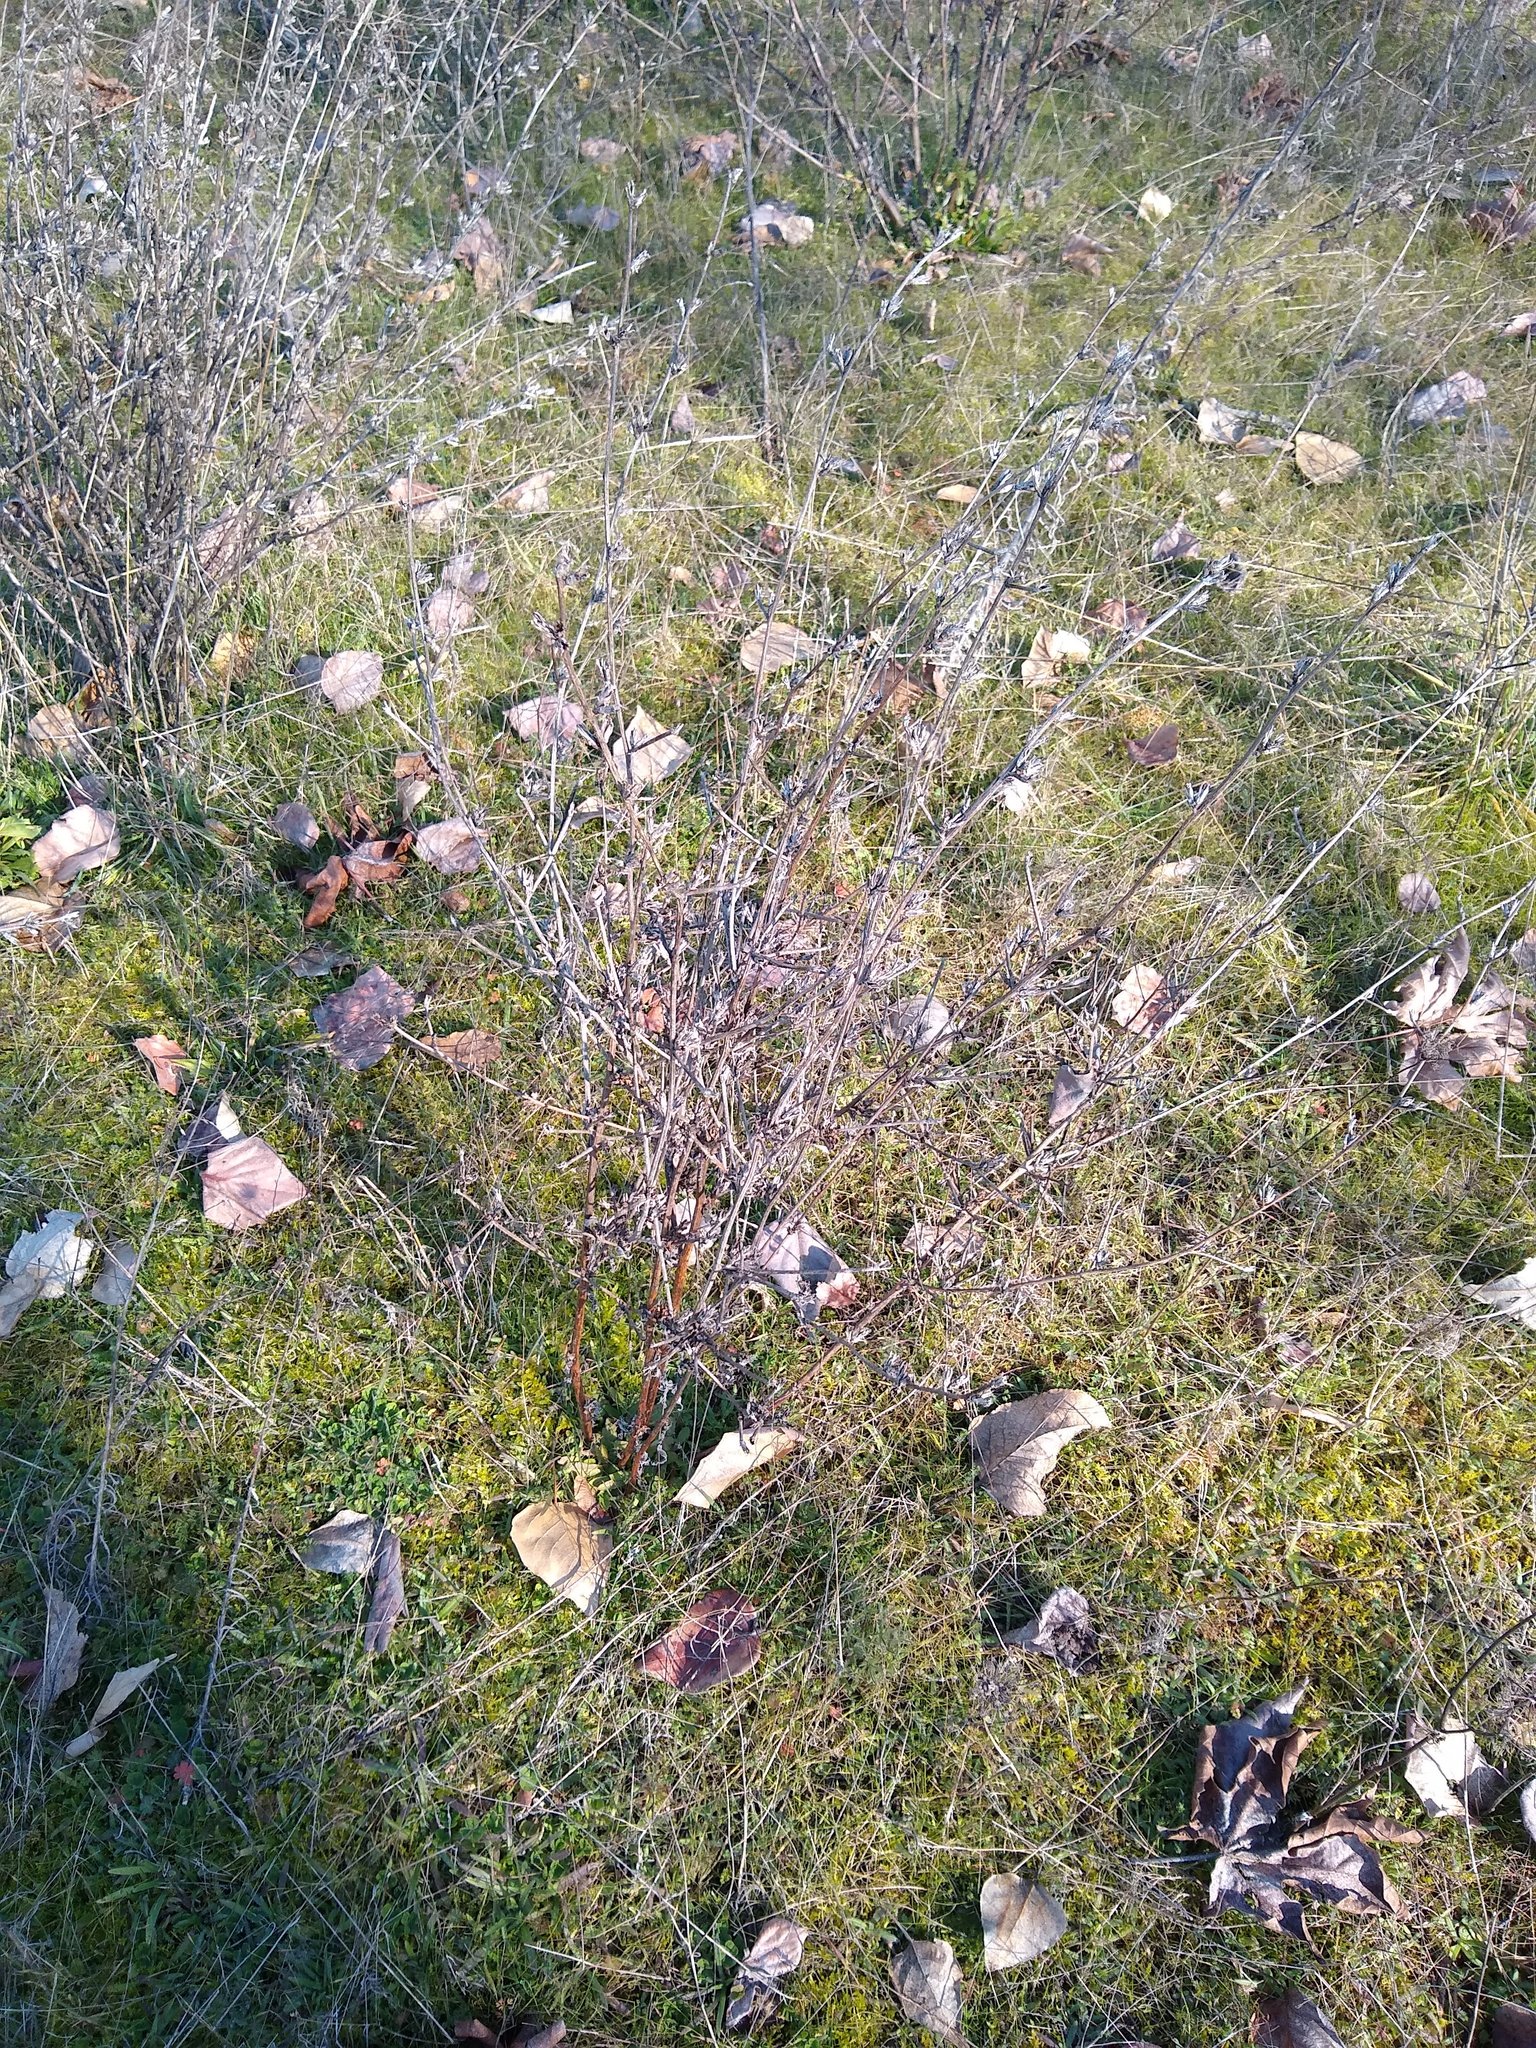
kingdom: Plantae
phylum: Tracheophyta
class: Magnoliopsida
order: Asterales
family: Asteraceae
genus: Cichorium
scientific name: Cichorium intybus
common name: Chicory
